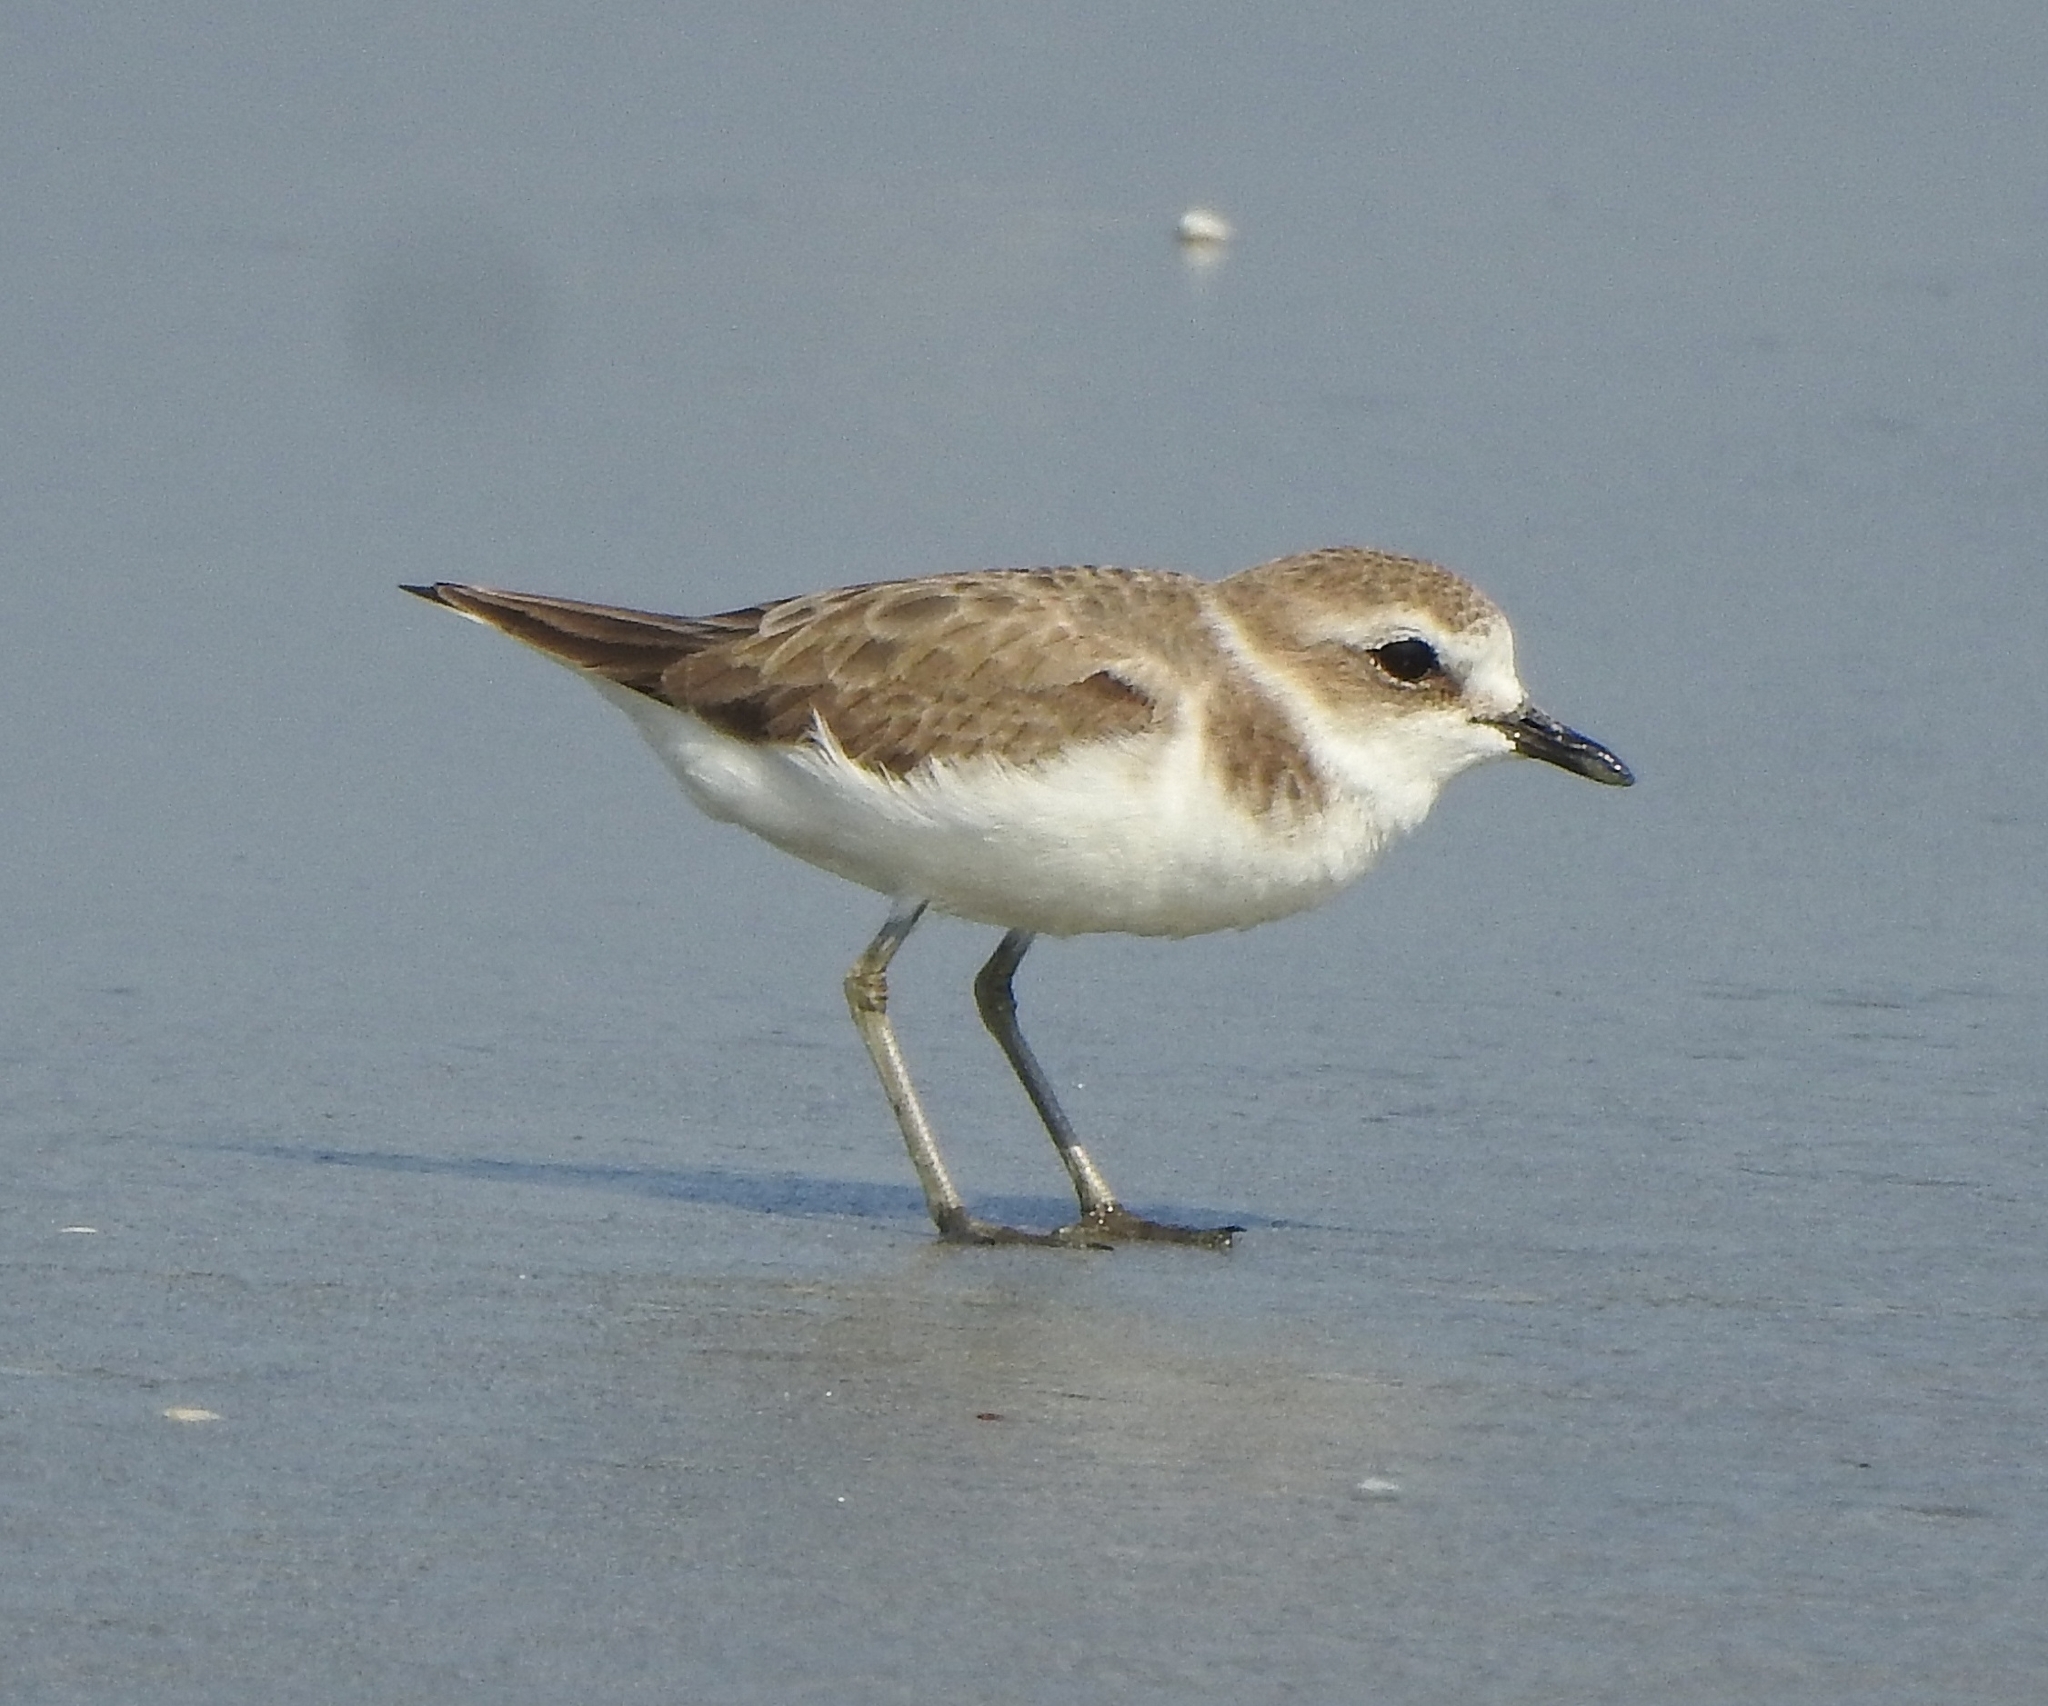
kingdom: Animalia
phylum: Chordata
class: Aves
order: Charadriiformes
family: Charadriidae
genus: Charadrius
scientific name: Charadrius alexandrinus
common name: Kentish plover
